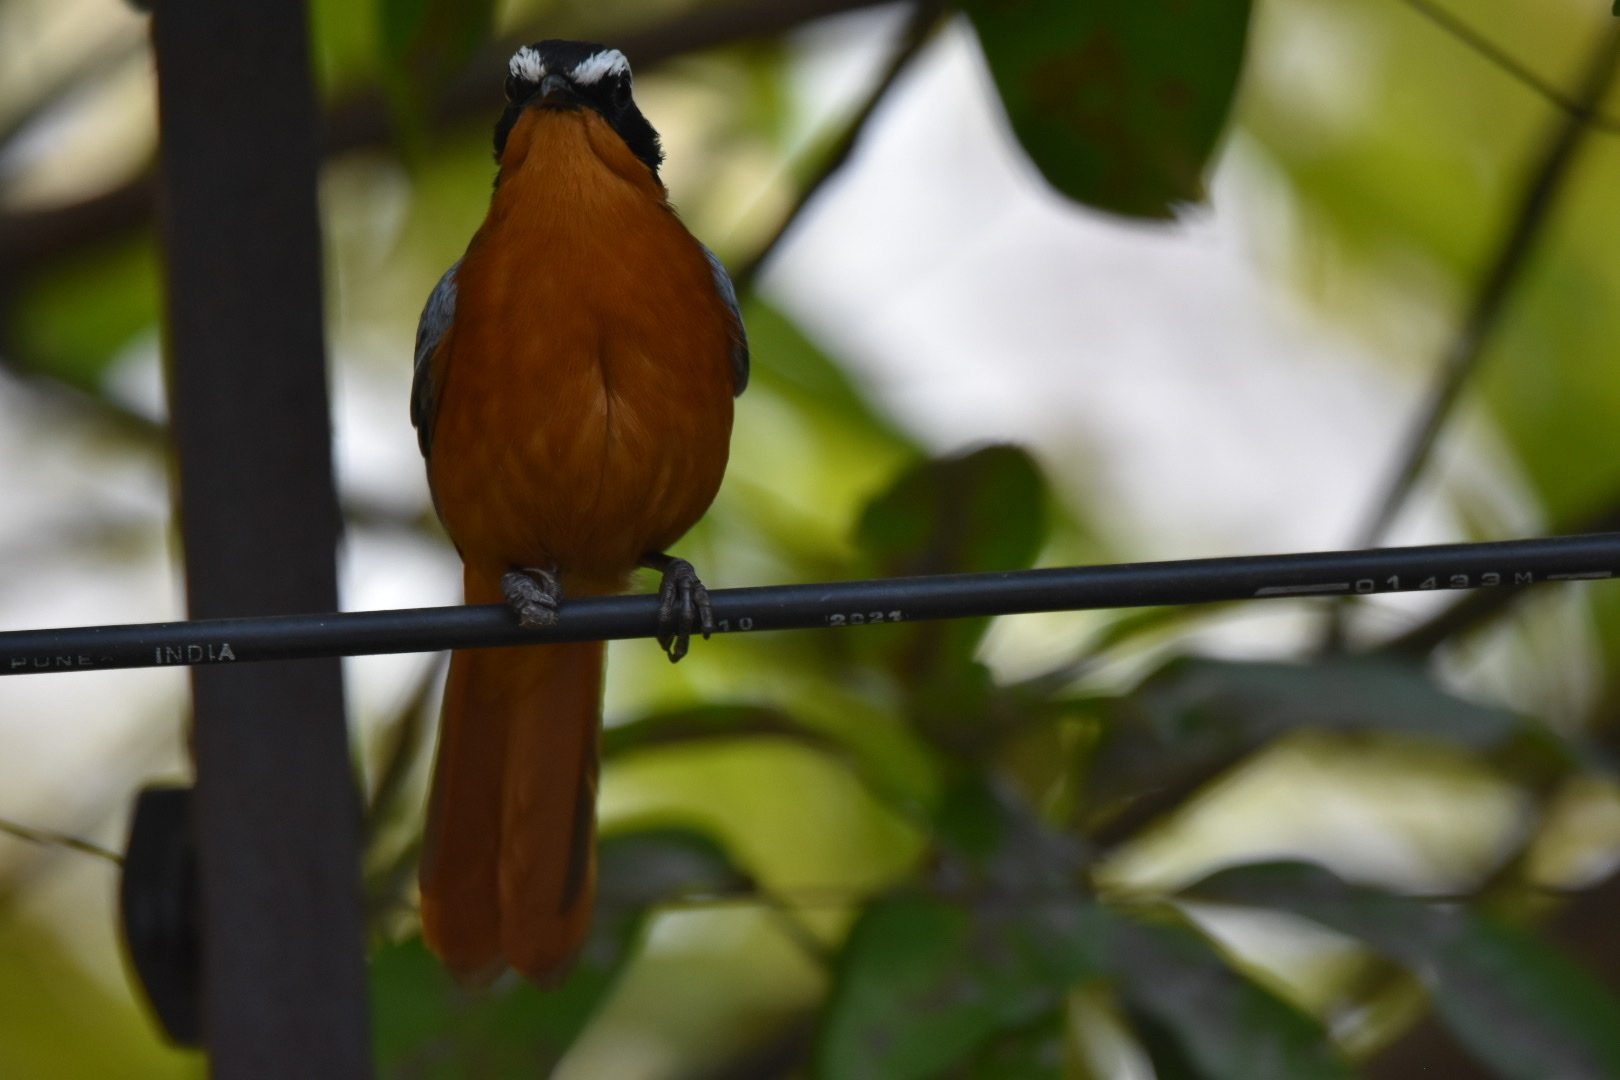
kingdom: Animalia
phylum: Chordata
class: Aves
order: Passeriformes
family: Muscicapidae
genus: Cossypha
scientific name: Cossypha heuglini
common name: White-browed robin-chat
